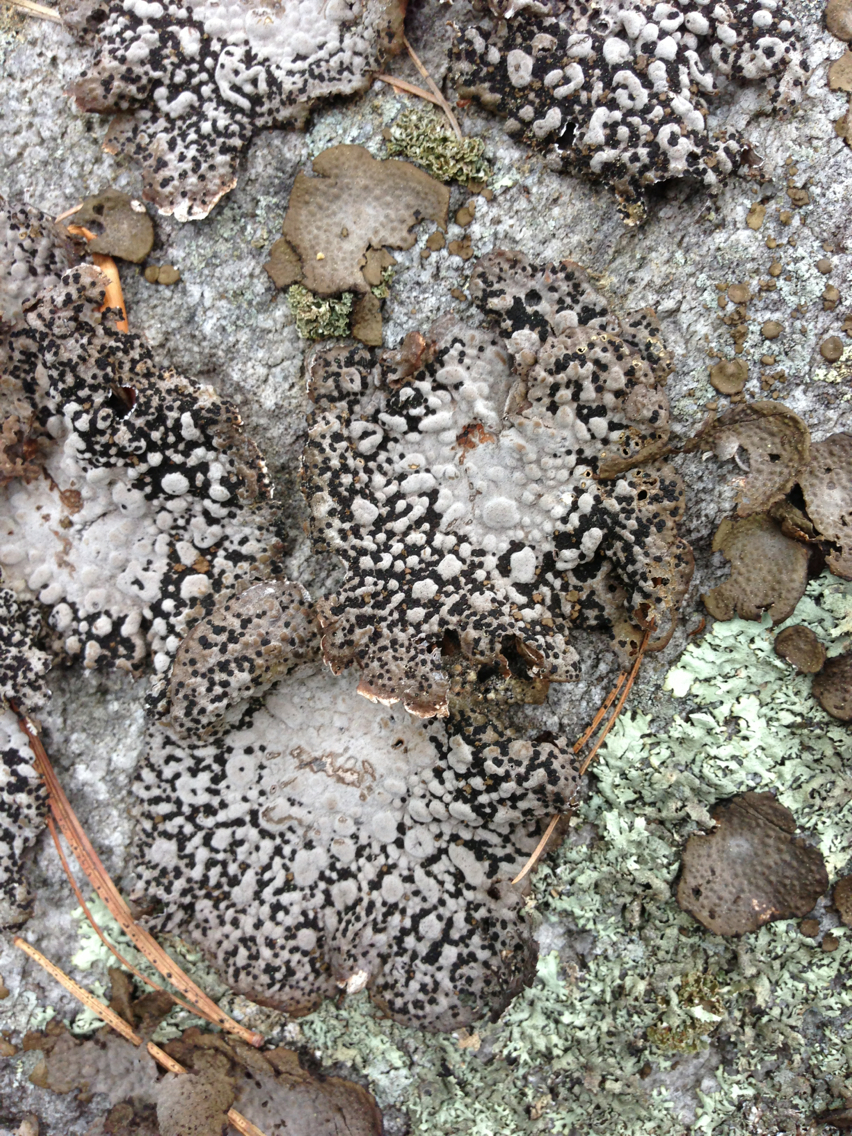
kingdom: Fungi
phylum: Ascomycota
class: Lecanoromycetes
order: Umbilicariales
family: Umbilicariaceae
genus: Lasallia
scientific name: Lasallia papulosa
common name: Common toadskin lichen
